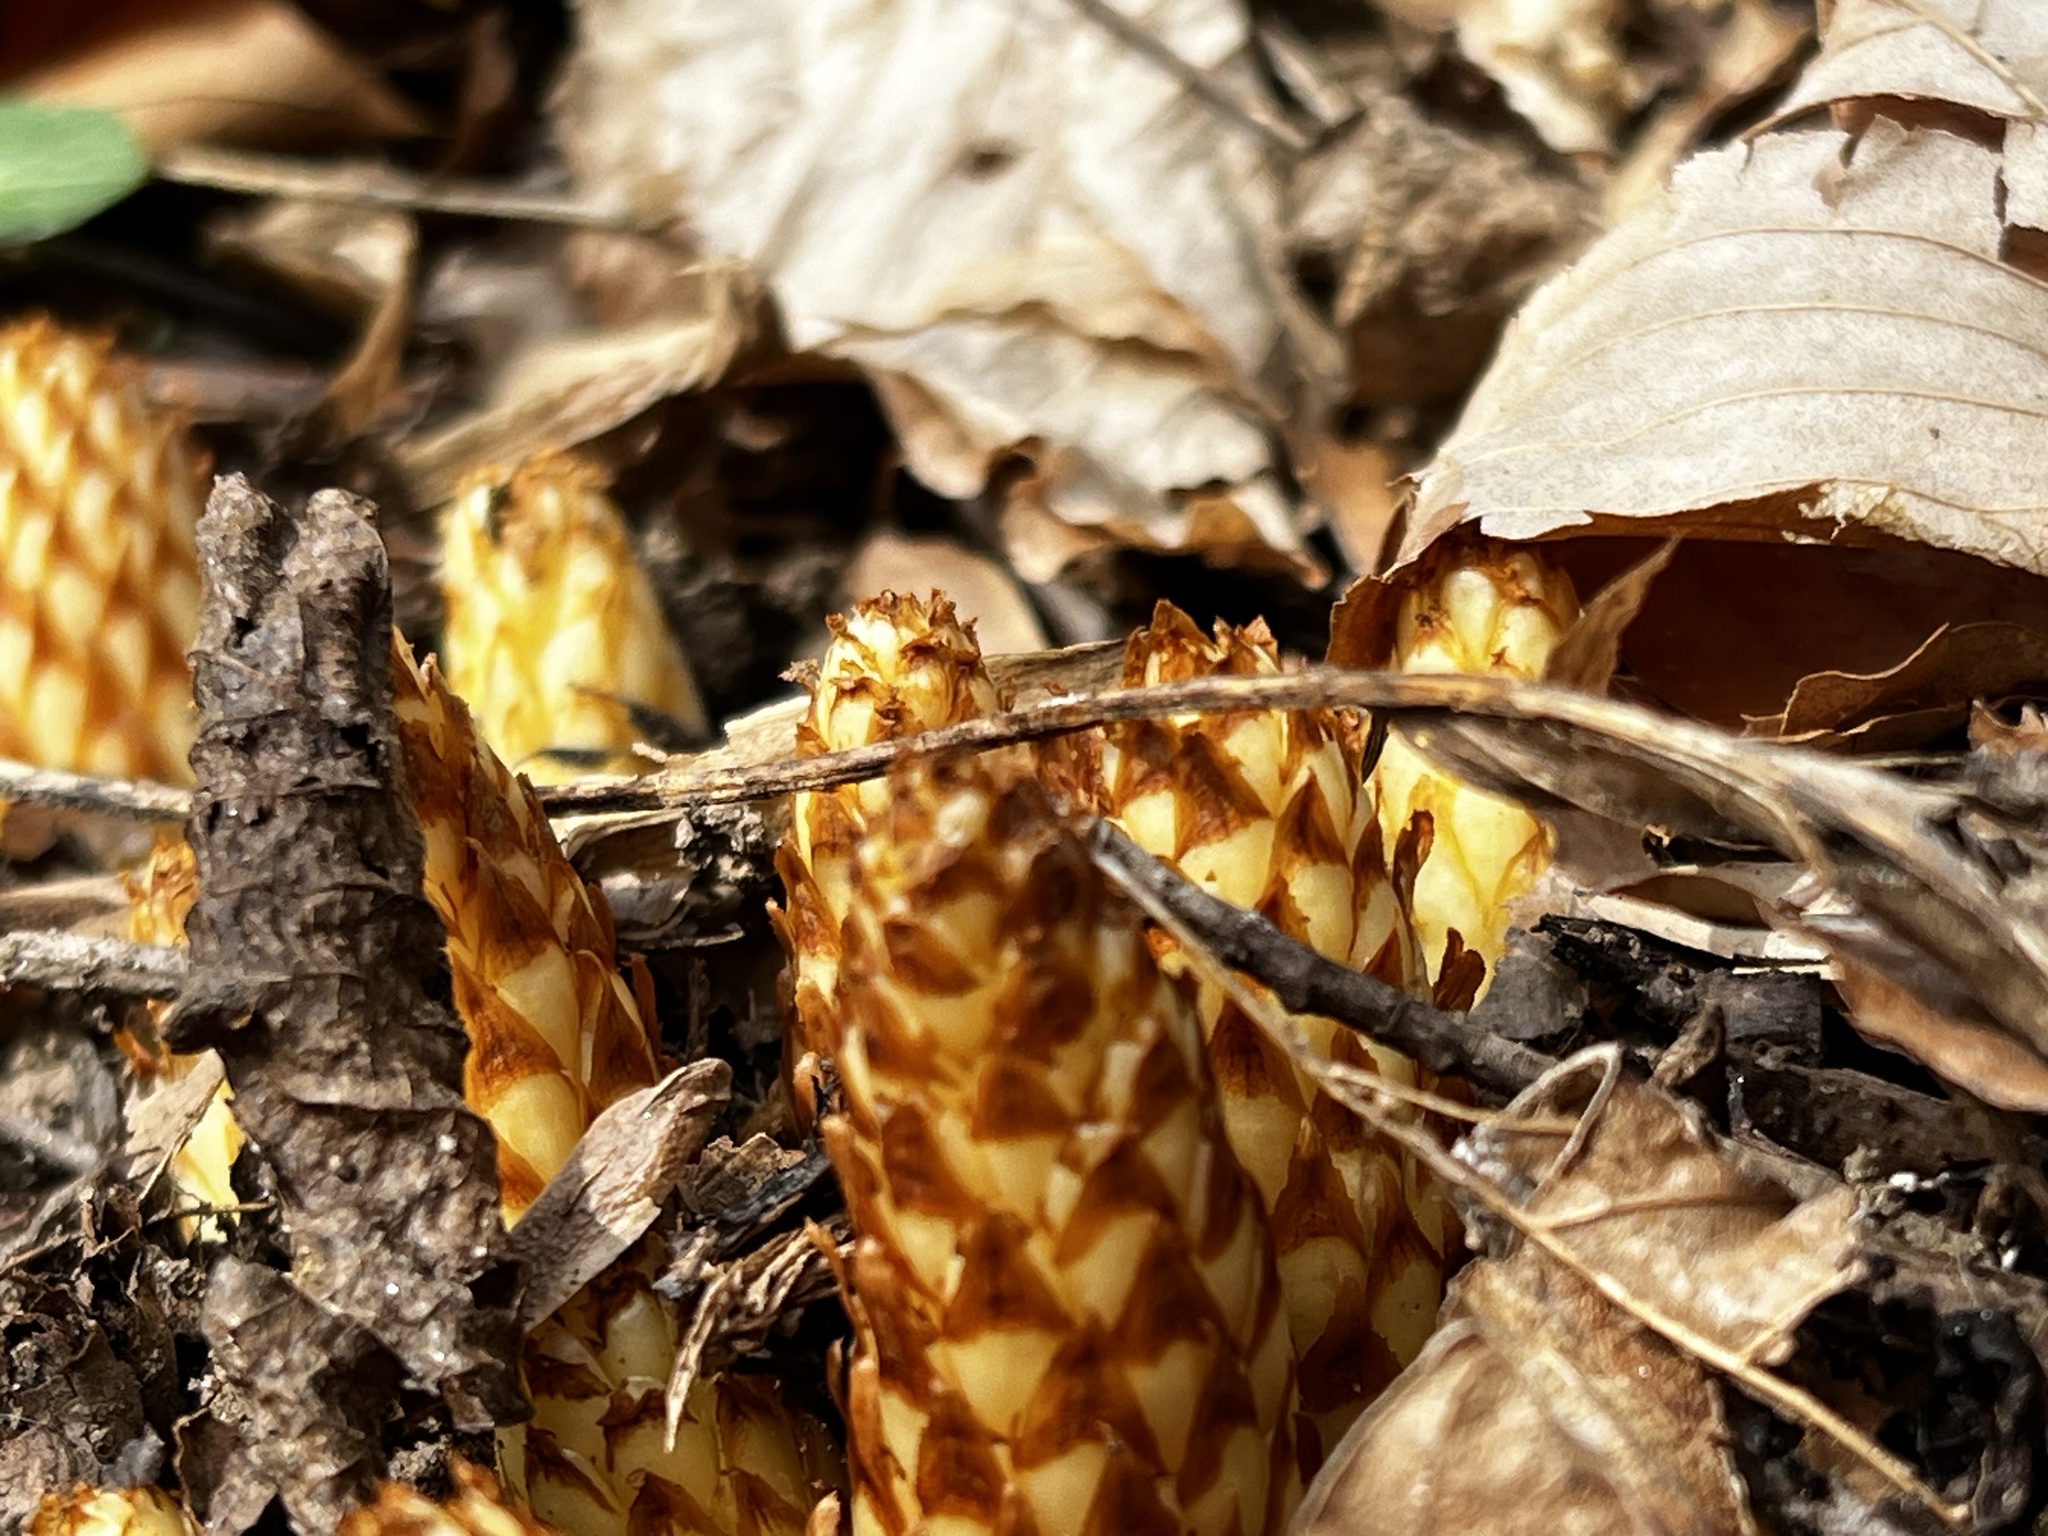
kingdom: Plantae
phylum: Tracheophyta
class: Magnoliopsida
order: Lamiales
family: Orobanchaceae
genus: Conopholis
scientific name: Conopholis americana
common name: American cancer-root
